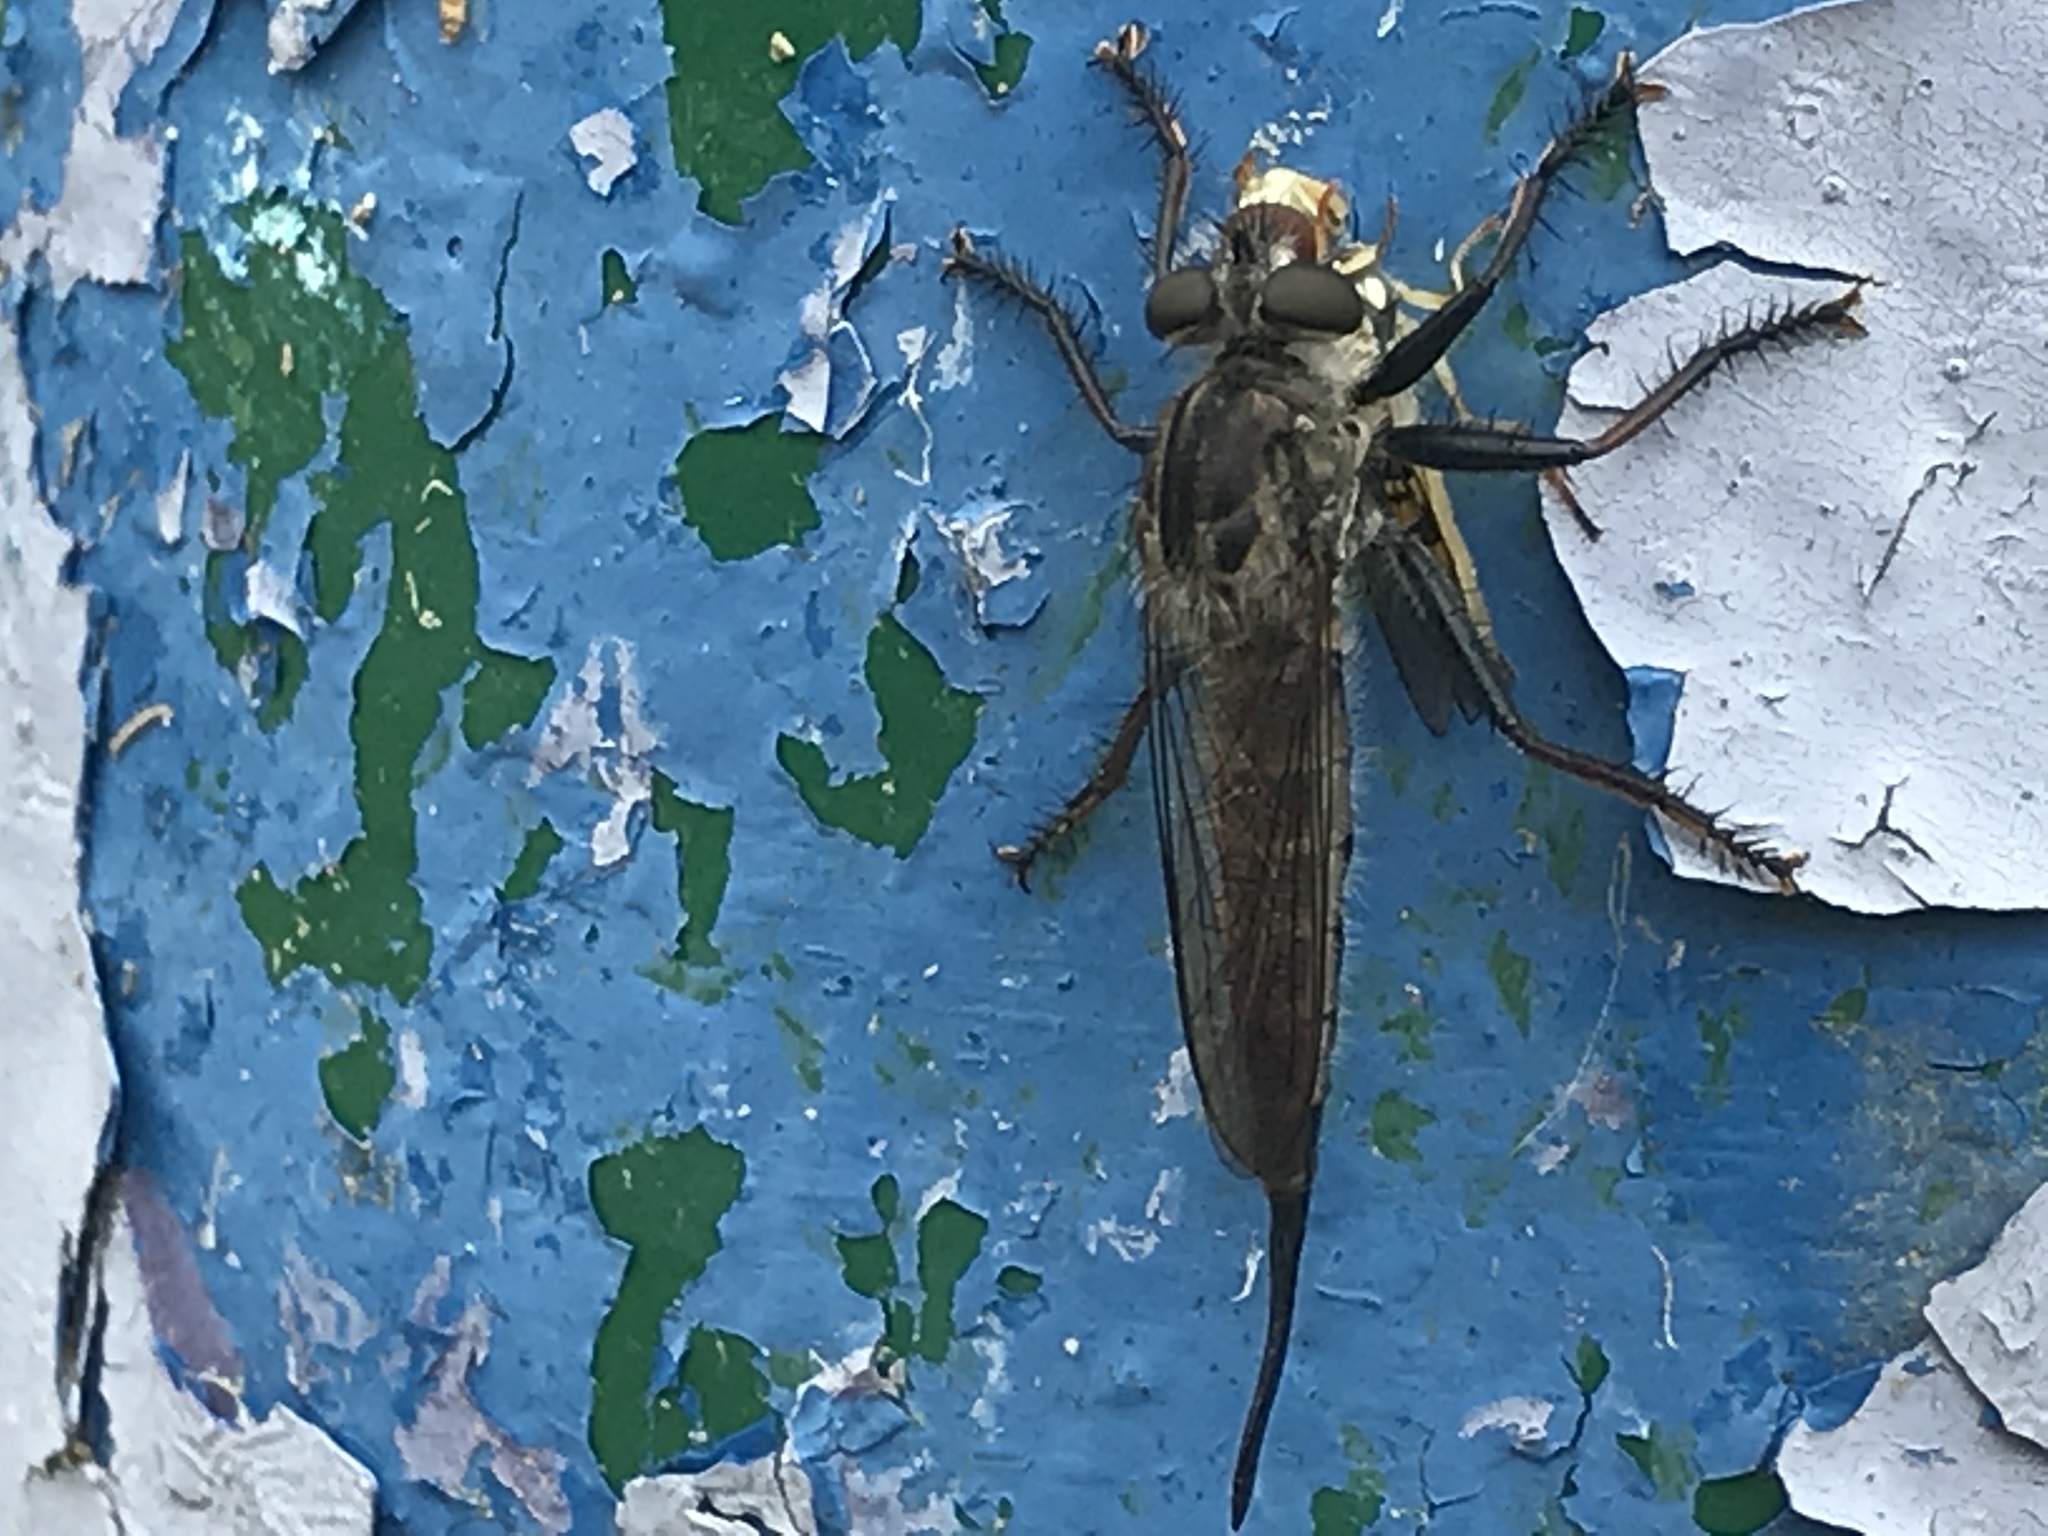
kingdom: Animalia
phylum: Arthropoda
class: Insecta
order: Diptera
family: Asilidae
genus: Efferia
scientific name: Efferia aestuans
